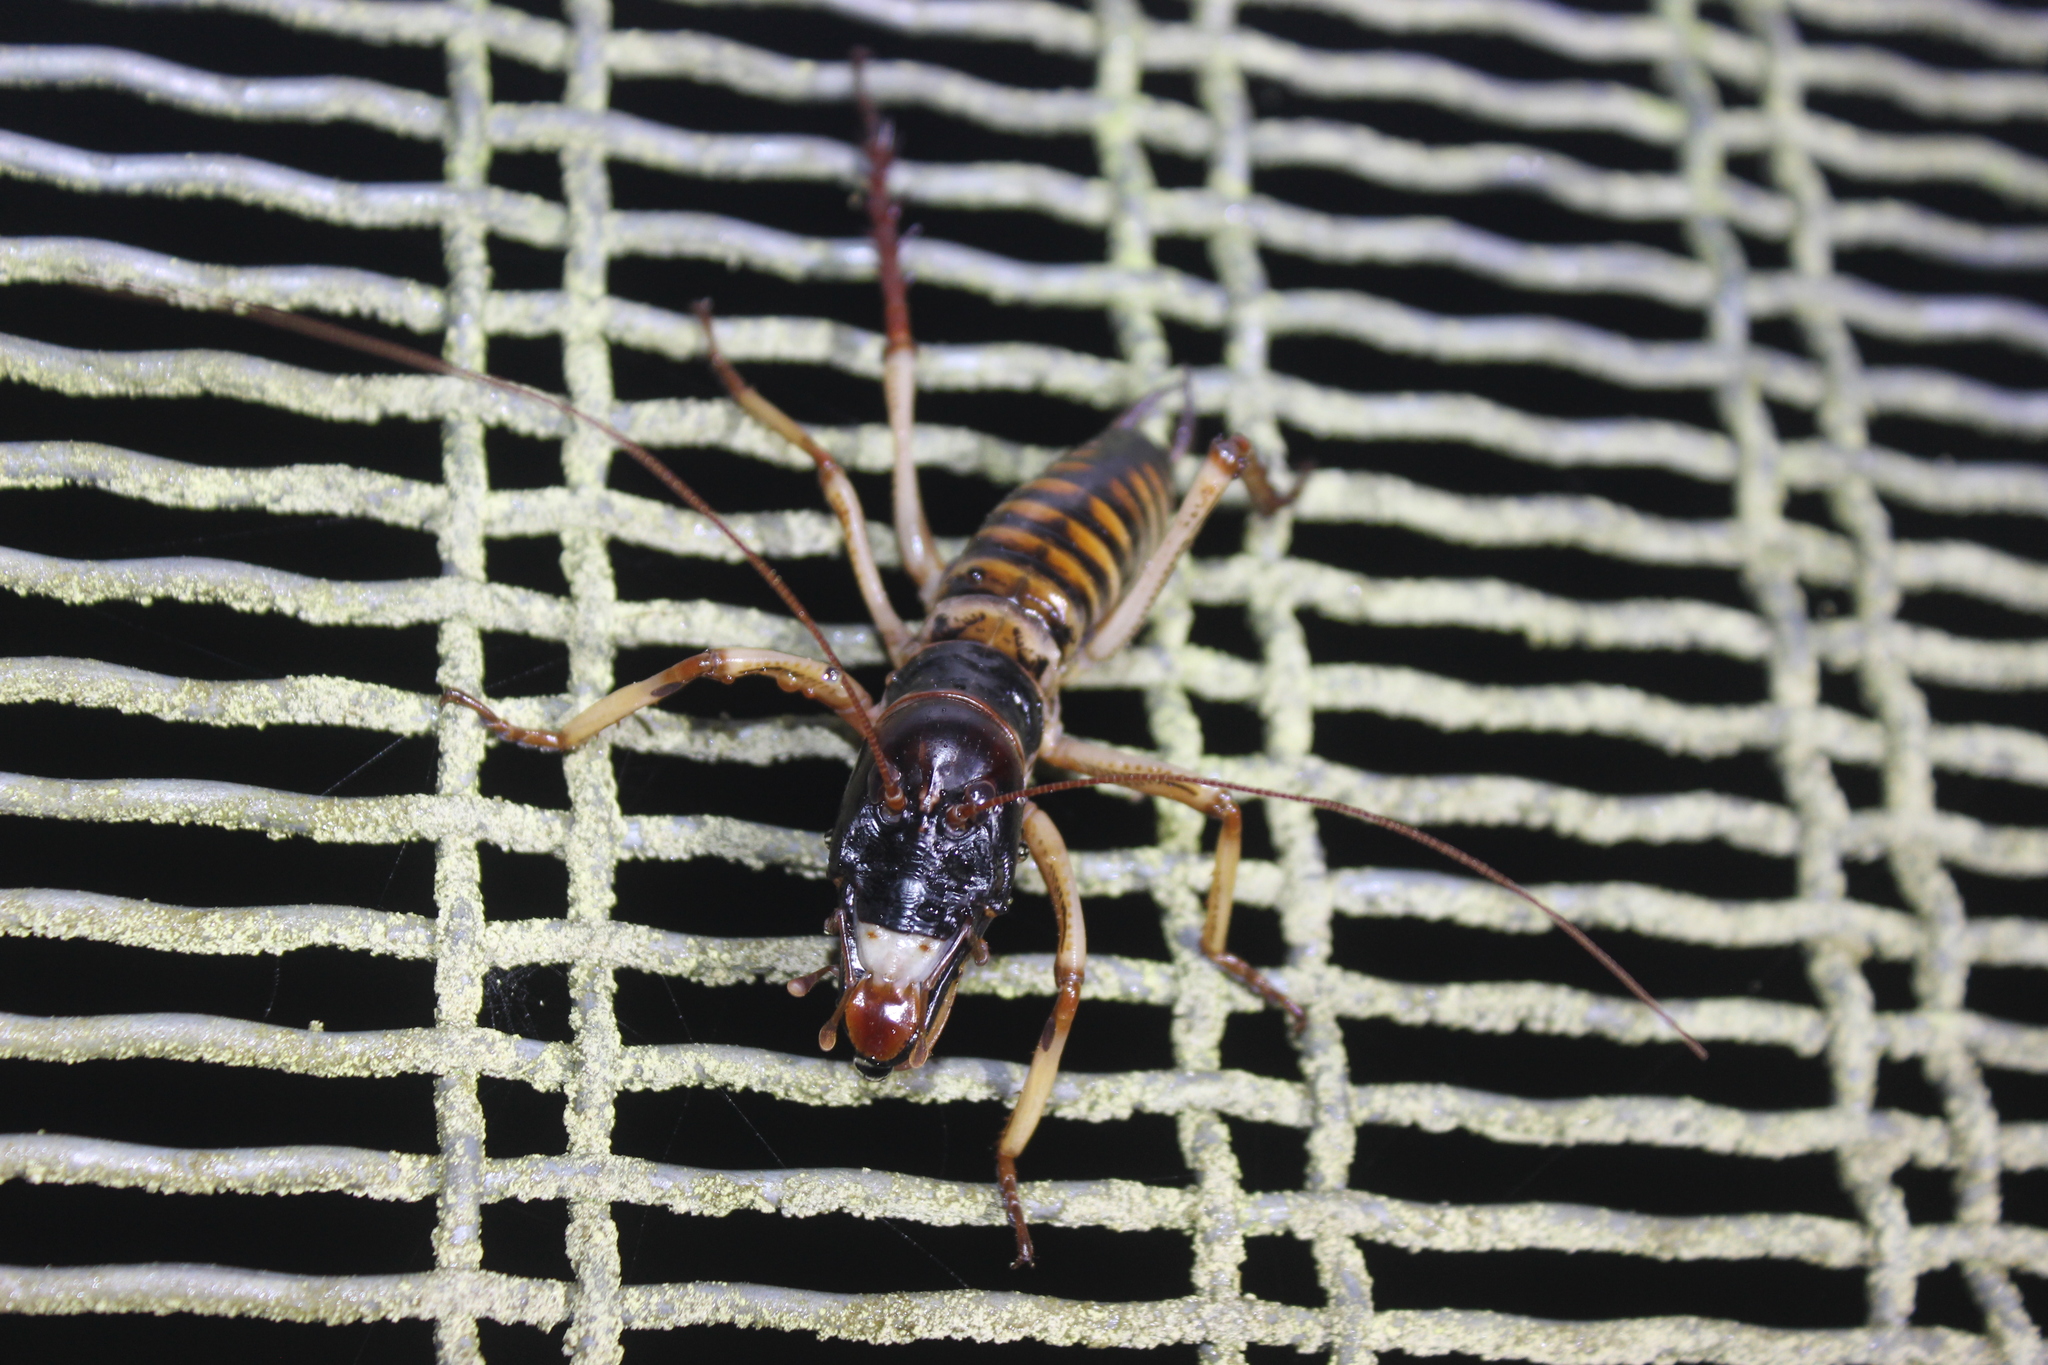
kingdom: Animalia
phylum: Arthropoda
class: Insecta
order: Orthoptera
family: Anostostomatidae
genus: Hemideina
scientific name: Hemideina crassidens
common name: Wellington tree weta
